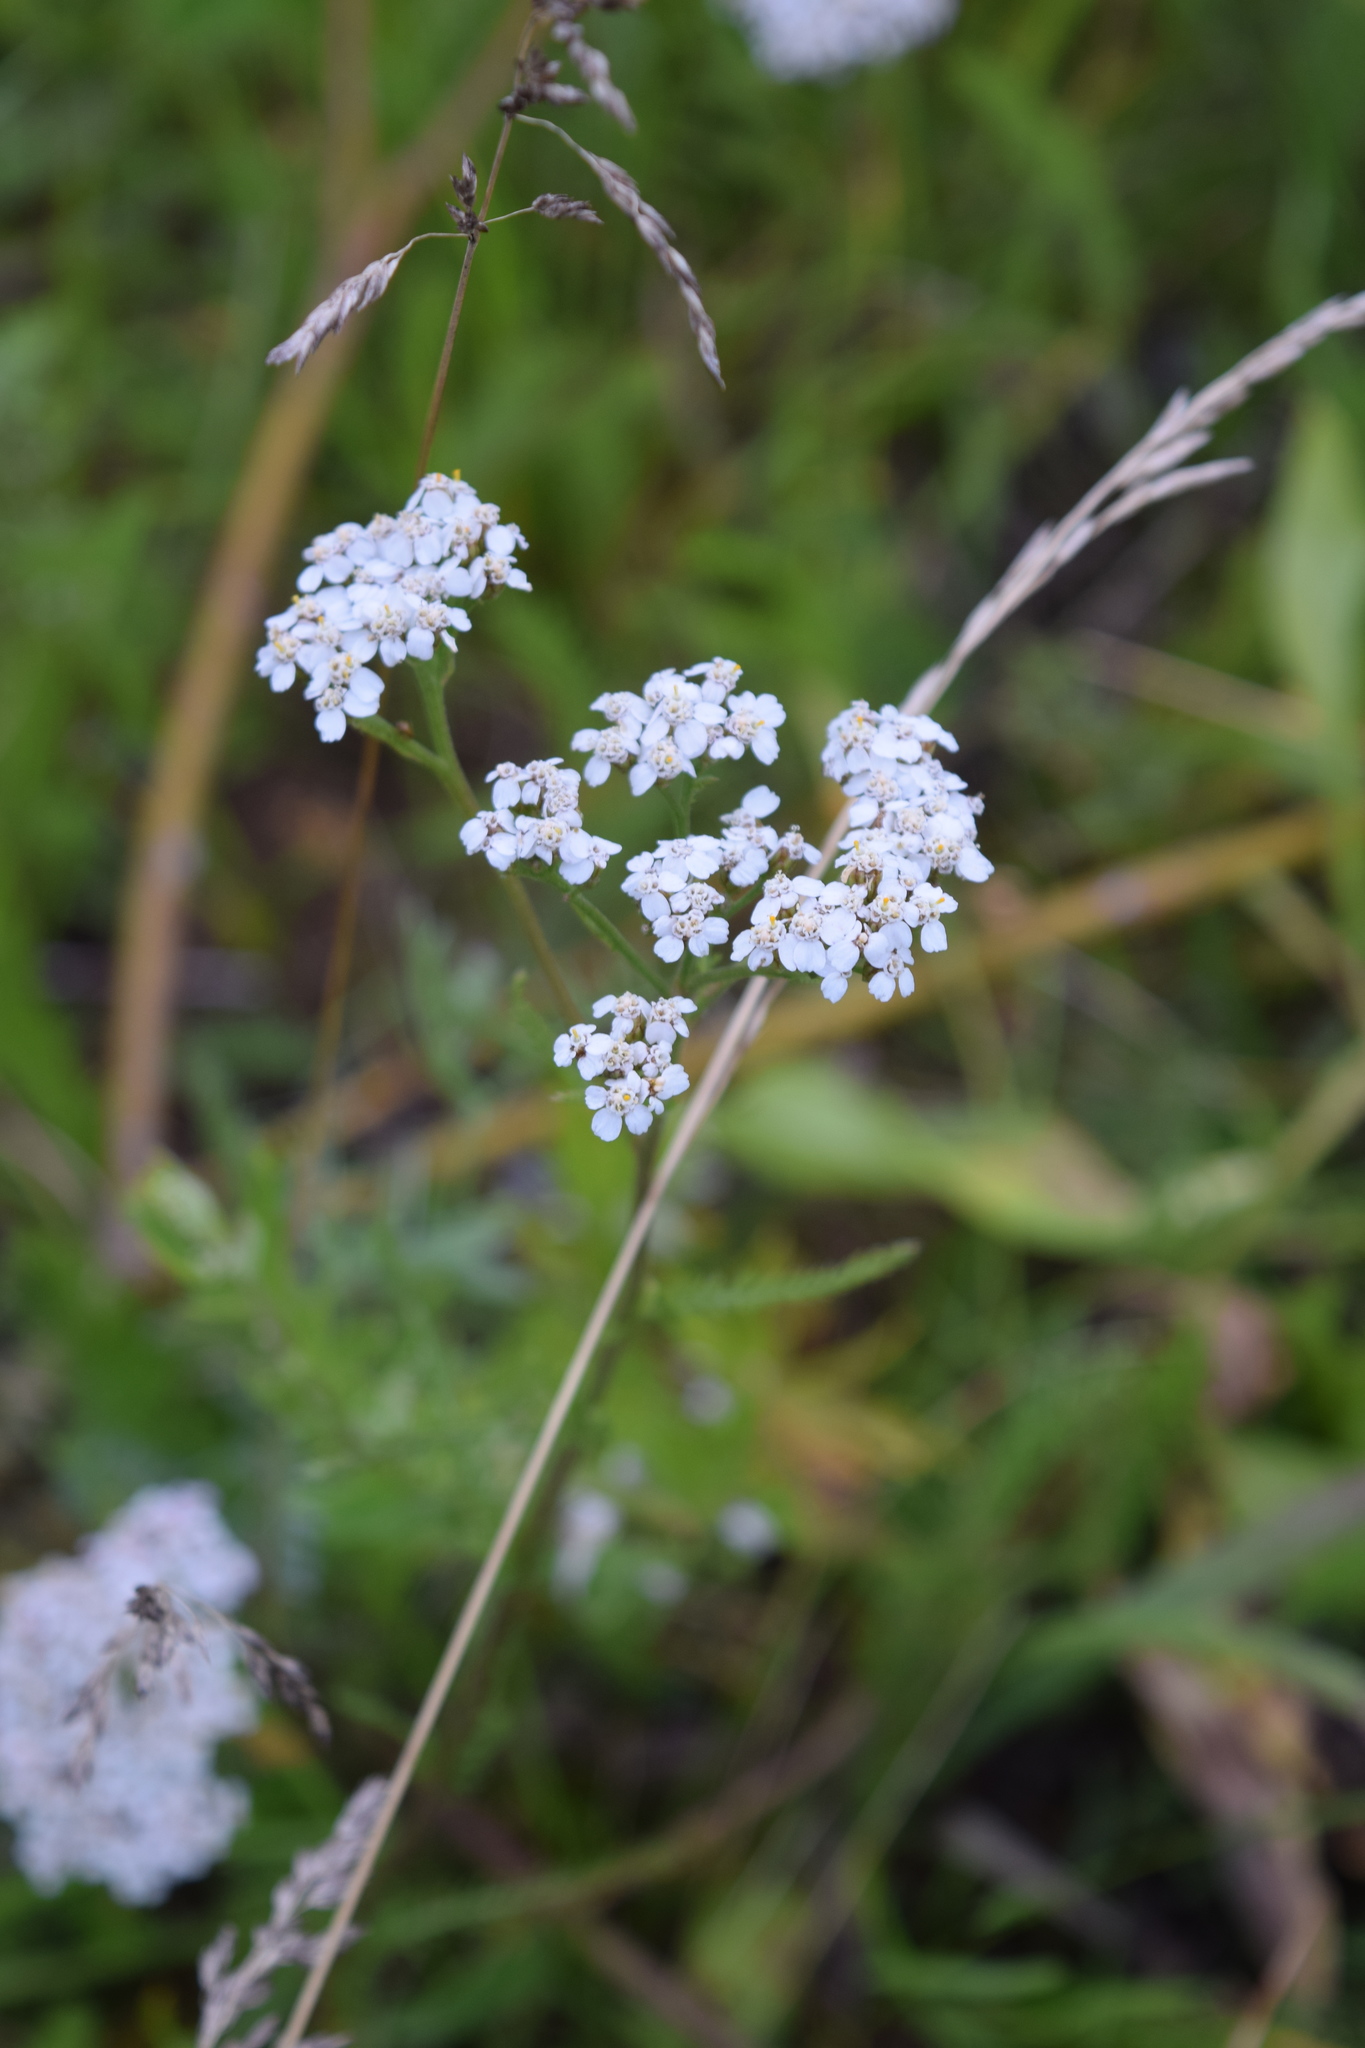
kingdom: Plantae
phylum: Tracheophyta
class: Magnoliopsida
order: Asterales
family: Asteraceae
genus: Achillea
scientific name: Achillea millefolium
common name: Yarrow
